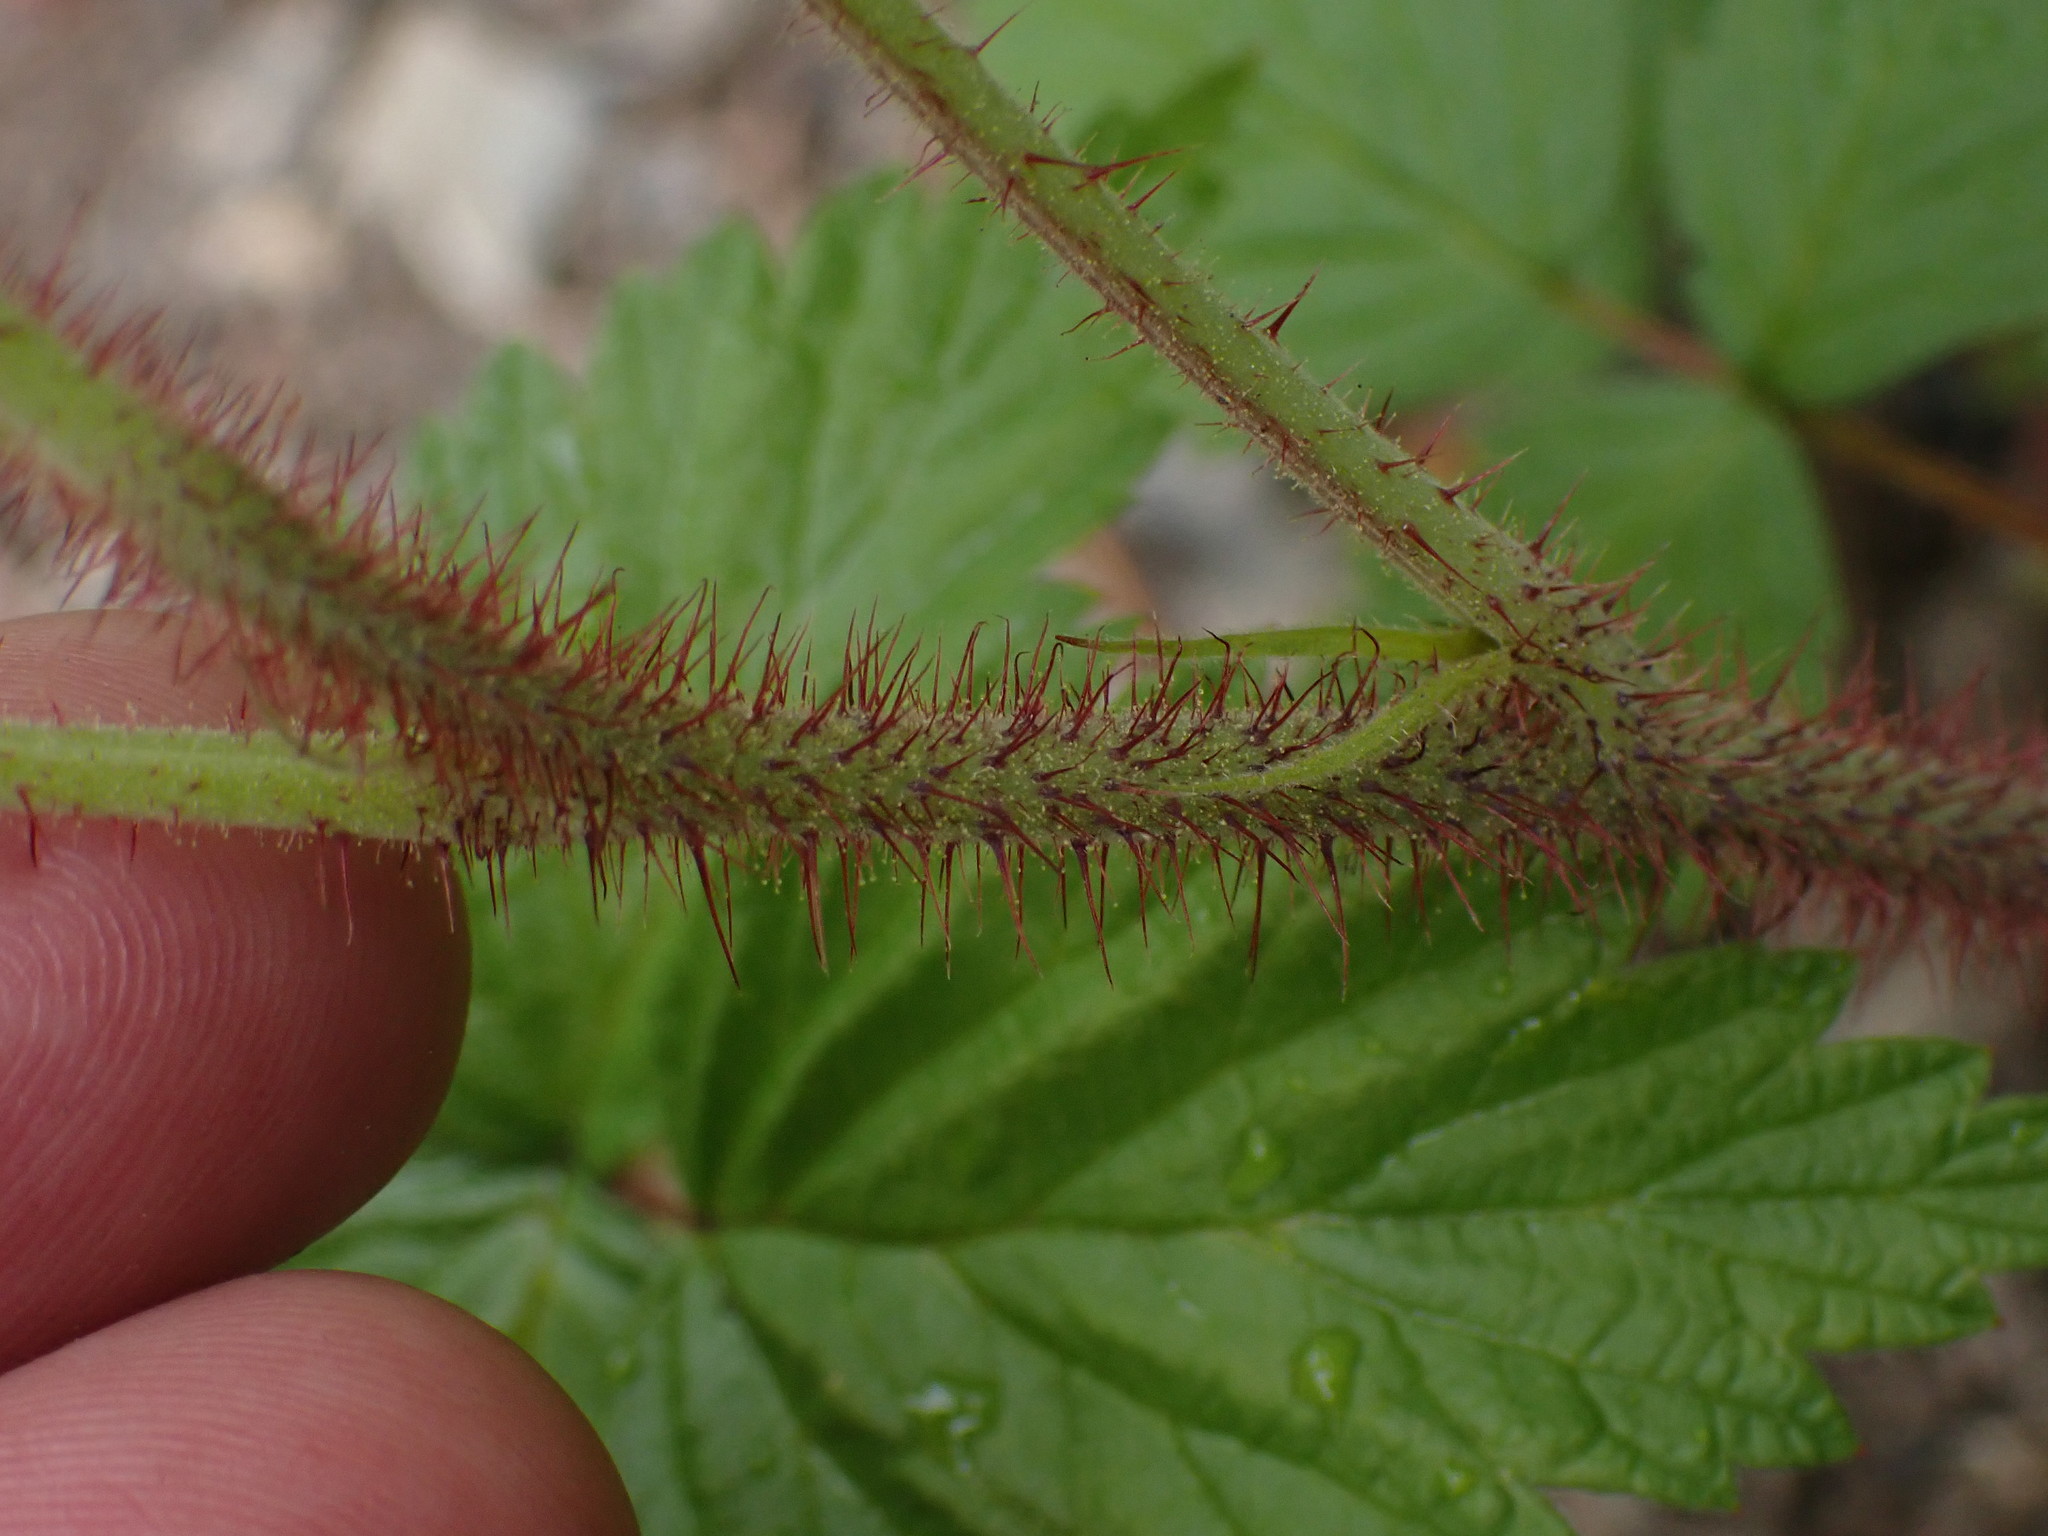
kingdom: Plantae
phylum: Tracheophyta
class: Magnoliopsida
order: Rosales
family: Rosaceae
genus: Rubus
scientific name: Rubus idaeus
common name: Raspberry
